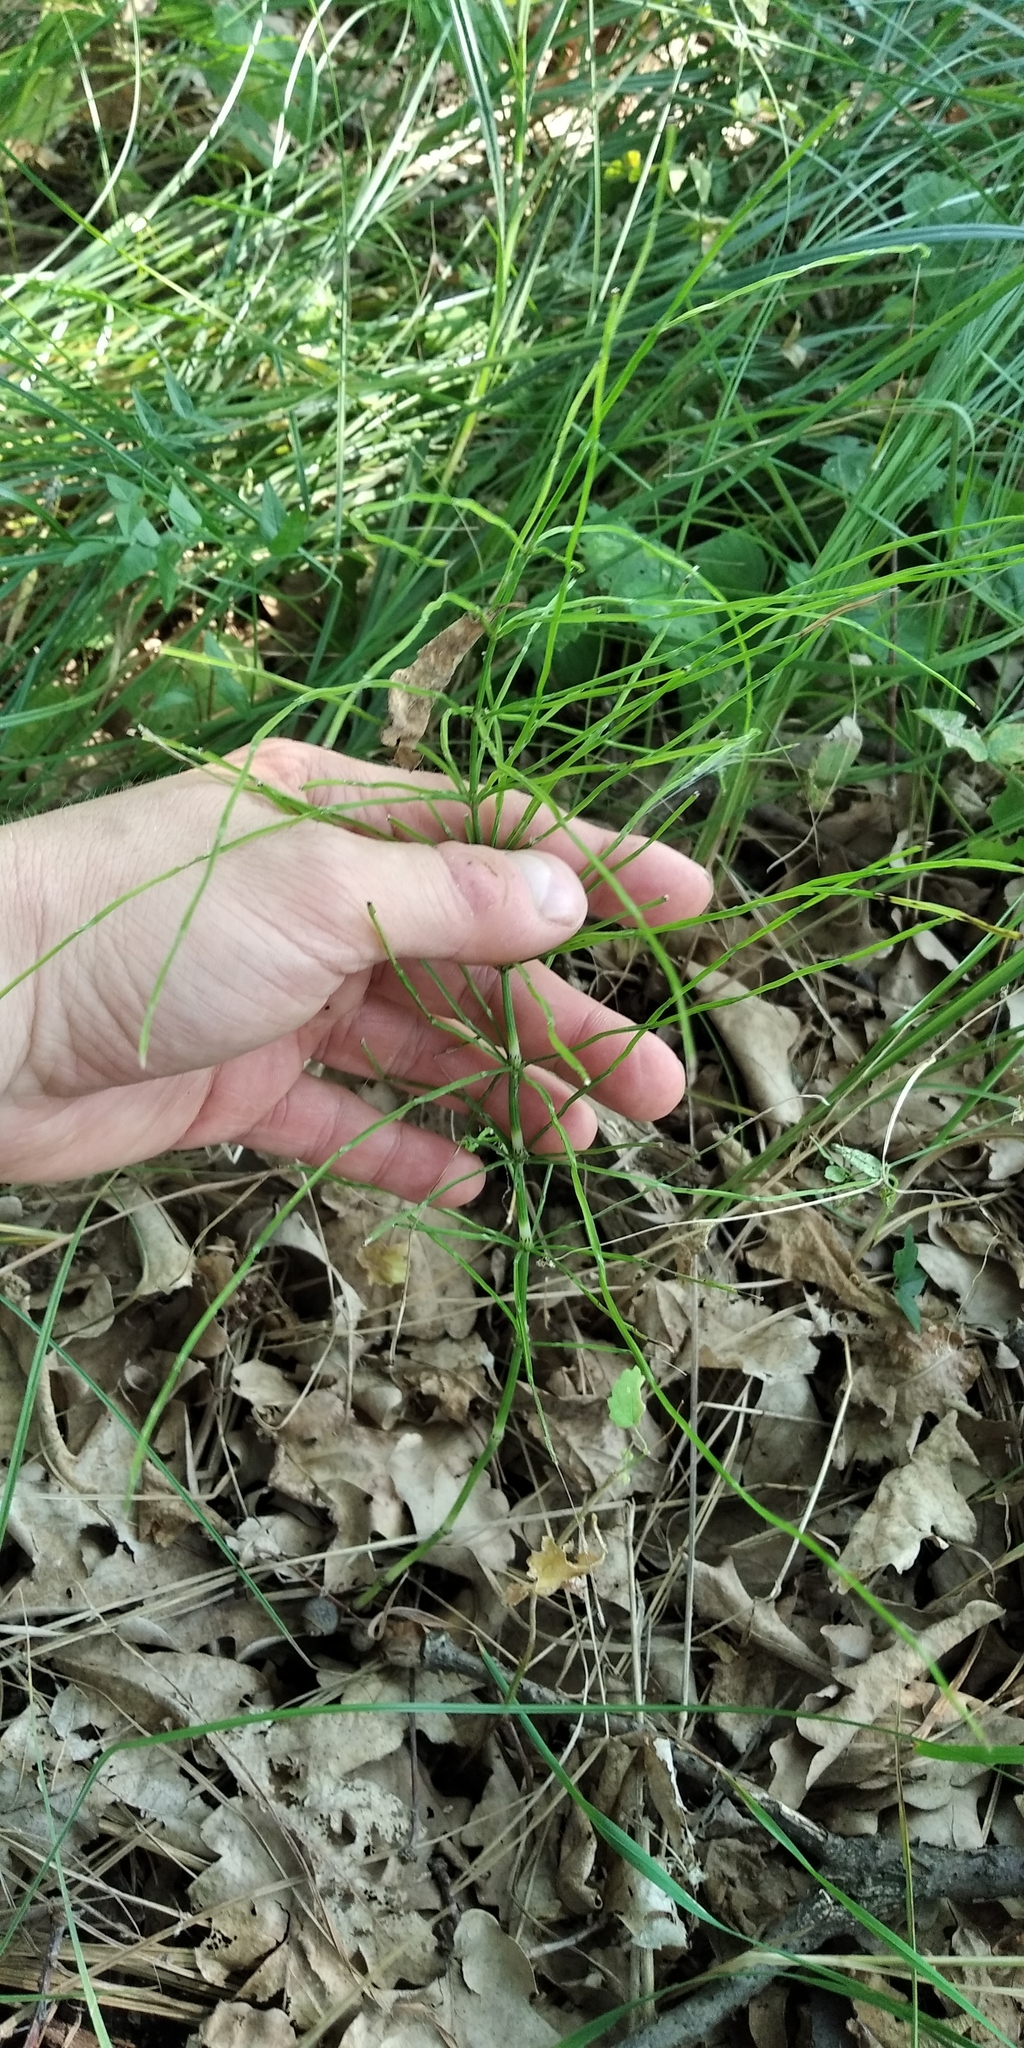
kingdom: Plantae
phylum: Tracheophyta
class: Polypodiopsida
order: Equisetales
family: Equisetaceae
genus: Equisetum
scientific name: Equisetum arvense
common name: Field horsetail
